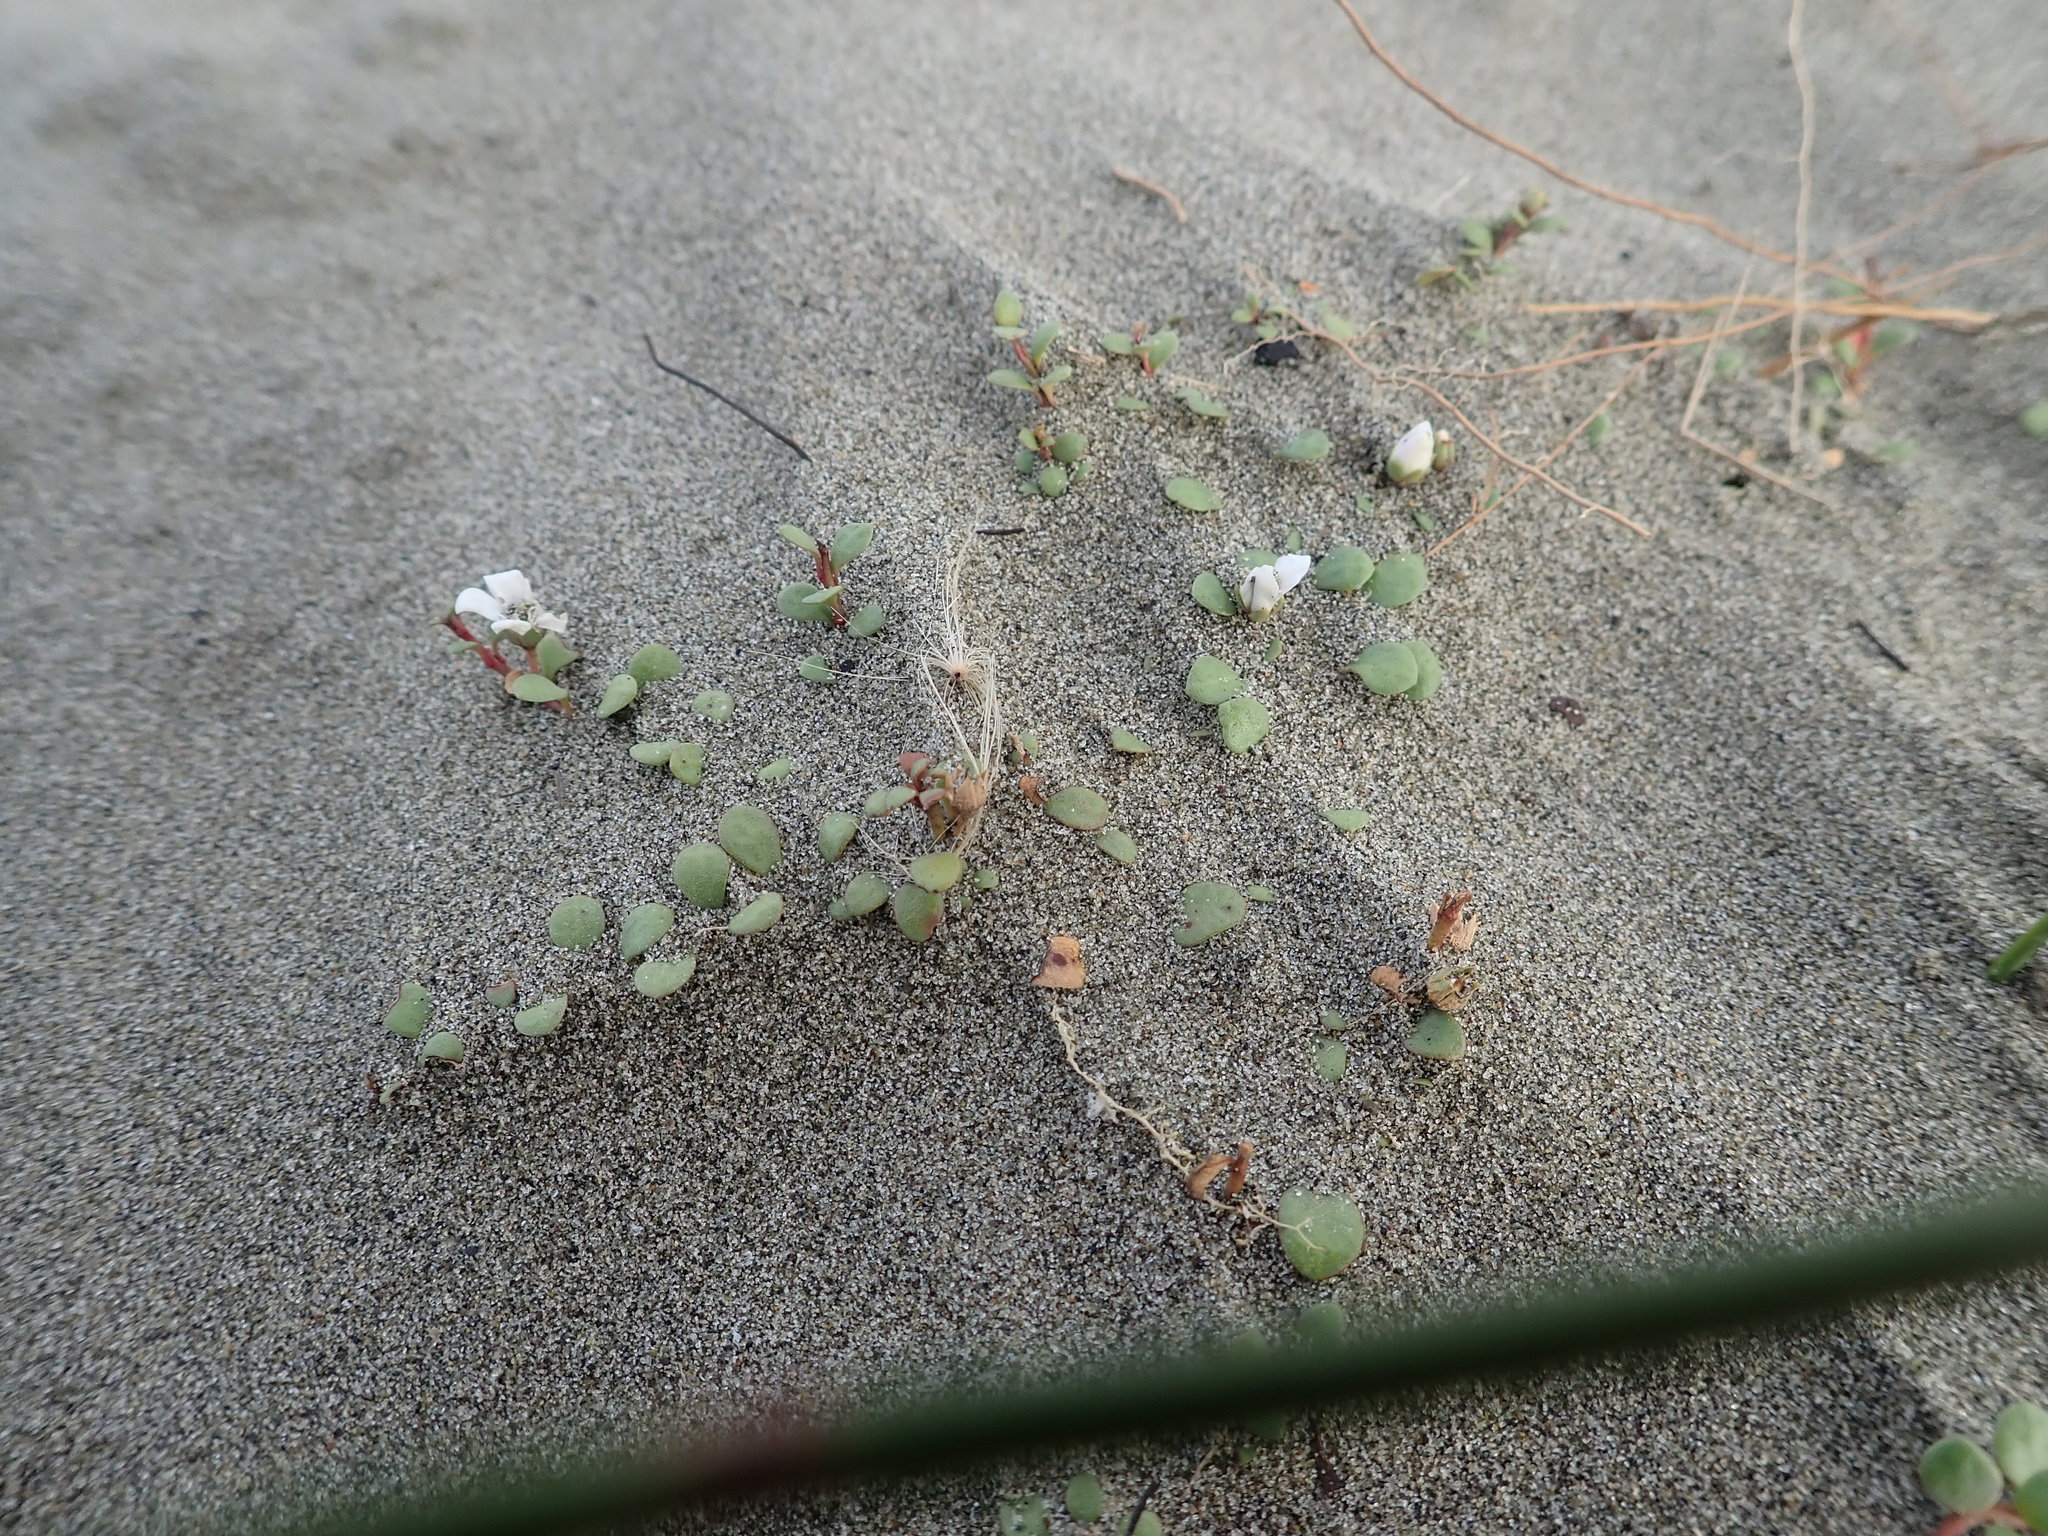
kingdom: Plantae
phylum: Tracheophyta
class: Magnoliopsida
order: Ericales
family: Primulaceae
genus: Samolus
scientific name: Samolus repens
